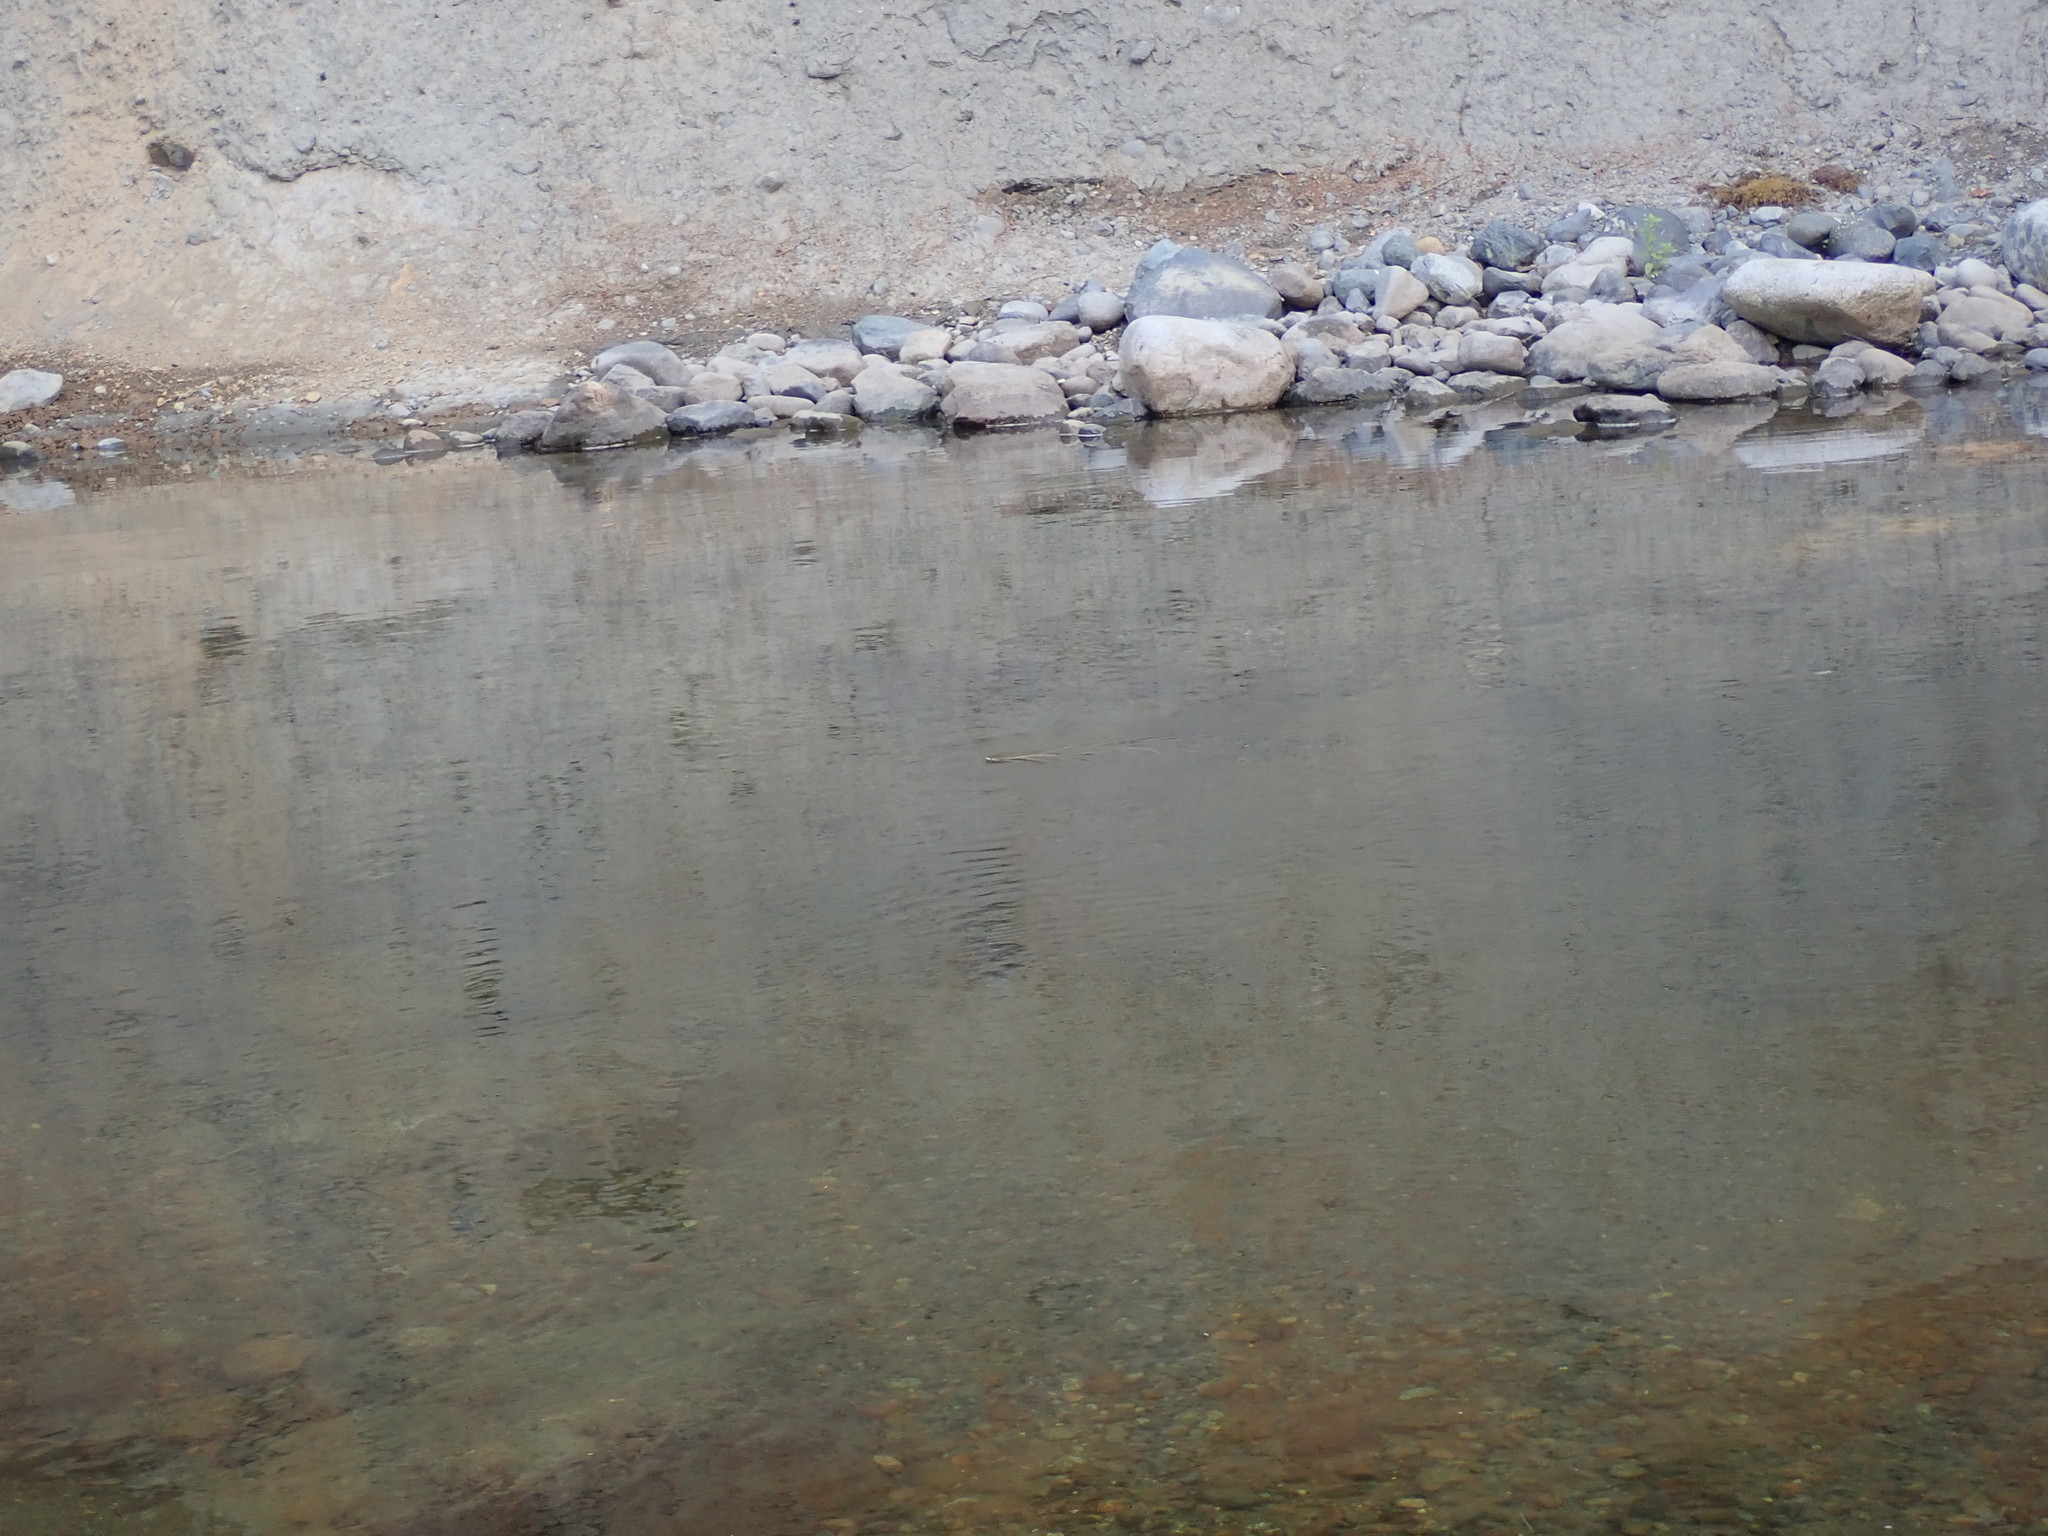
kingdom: Animalia
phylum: Chordata
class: Squamata
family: Colubridae
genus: Thamnophis
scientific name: Thamnophis sirtalis
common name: Common garter snake
